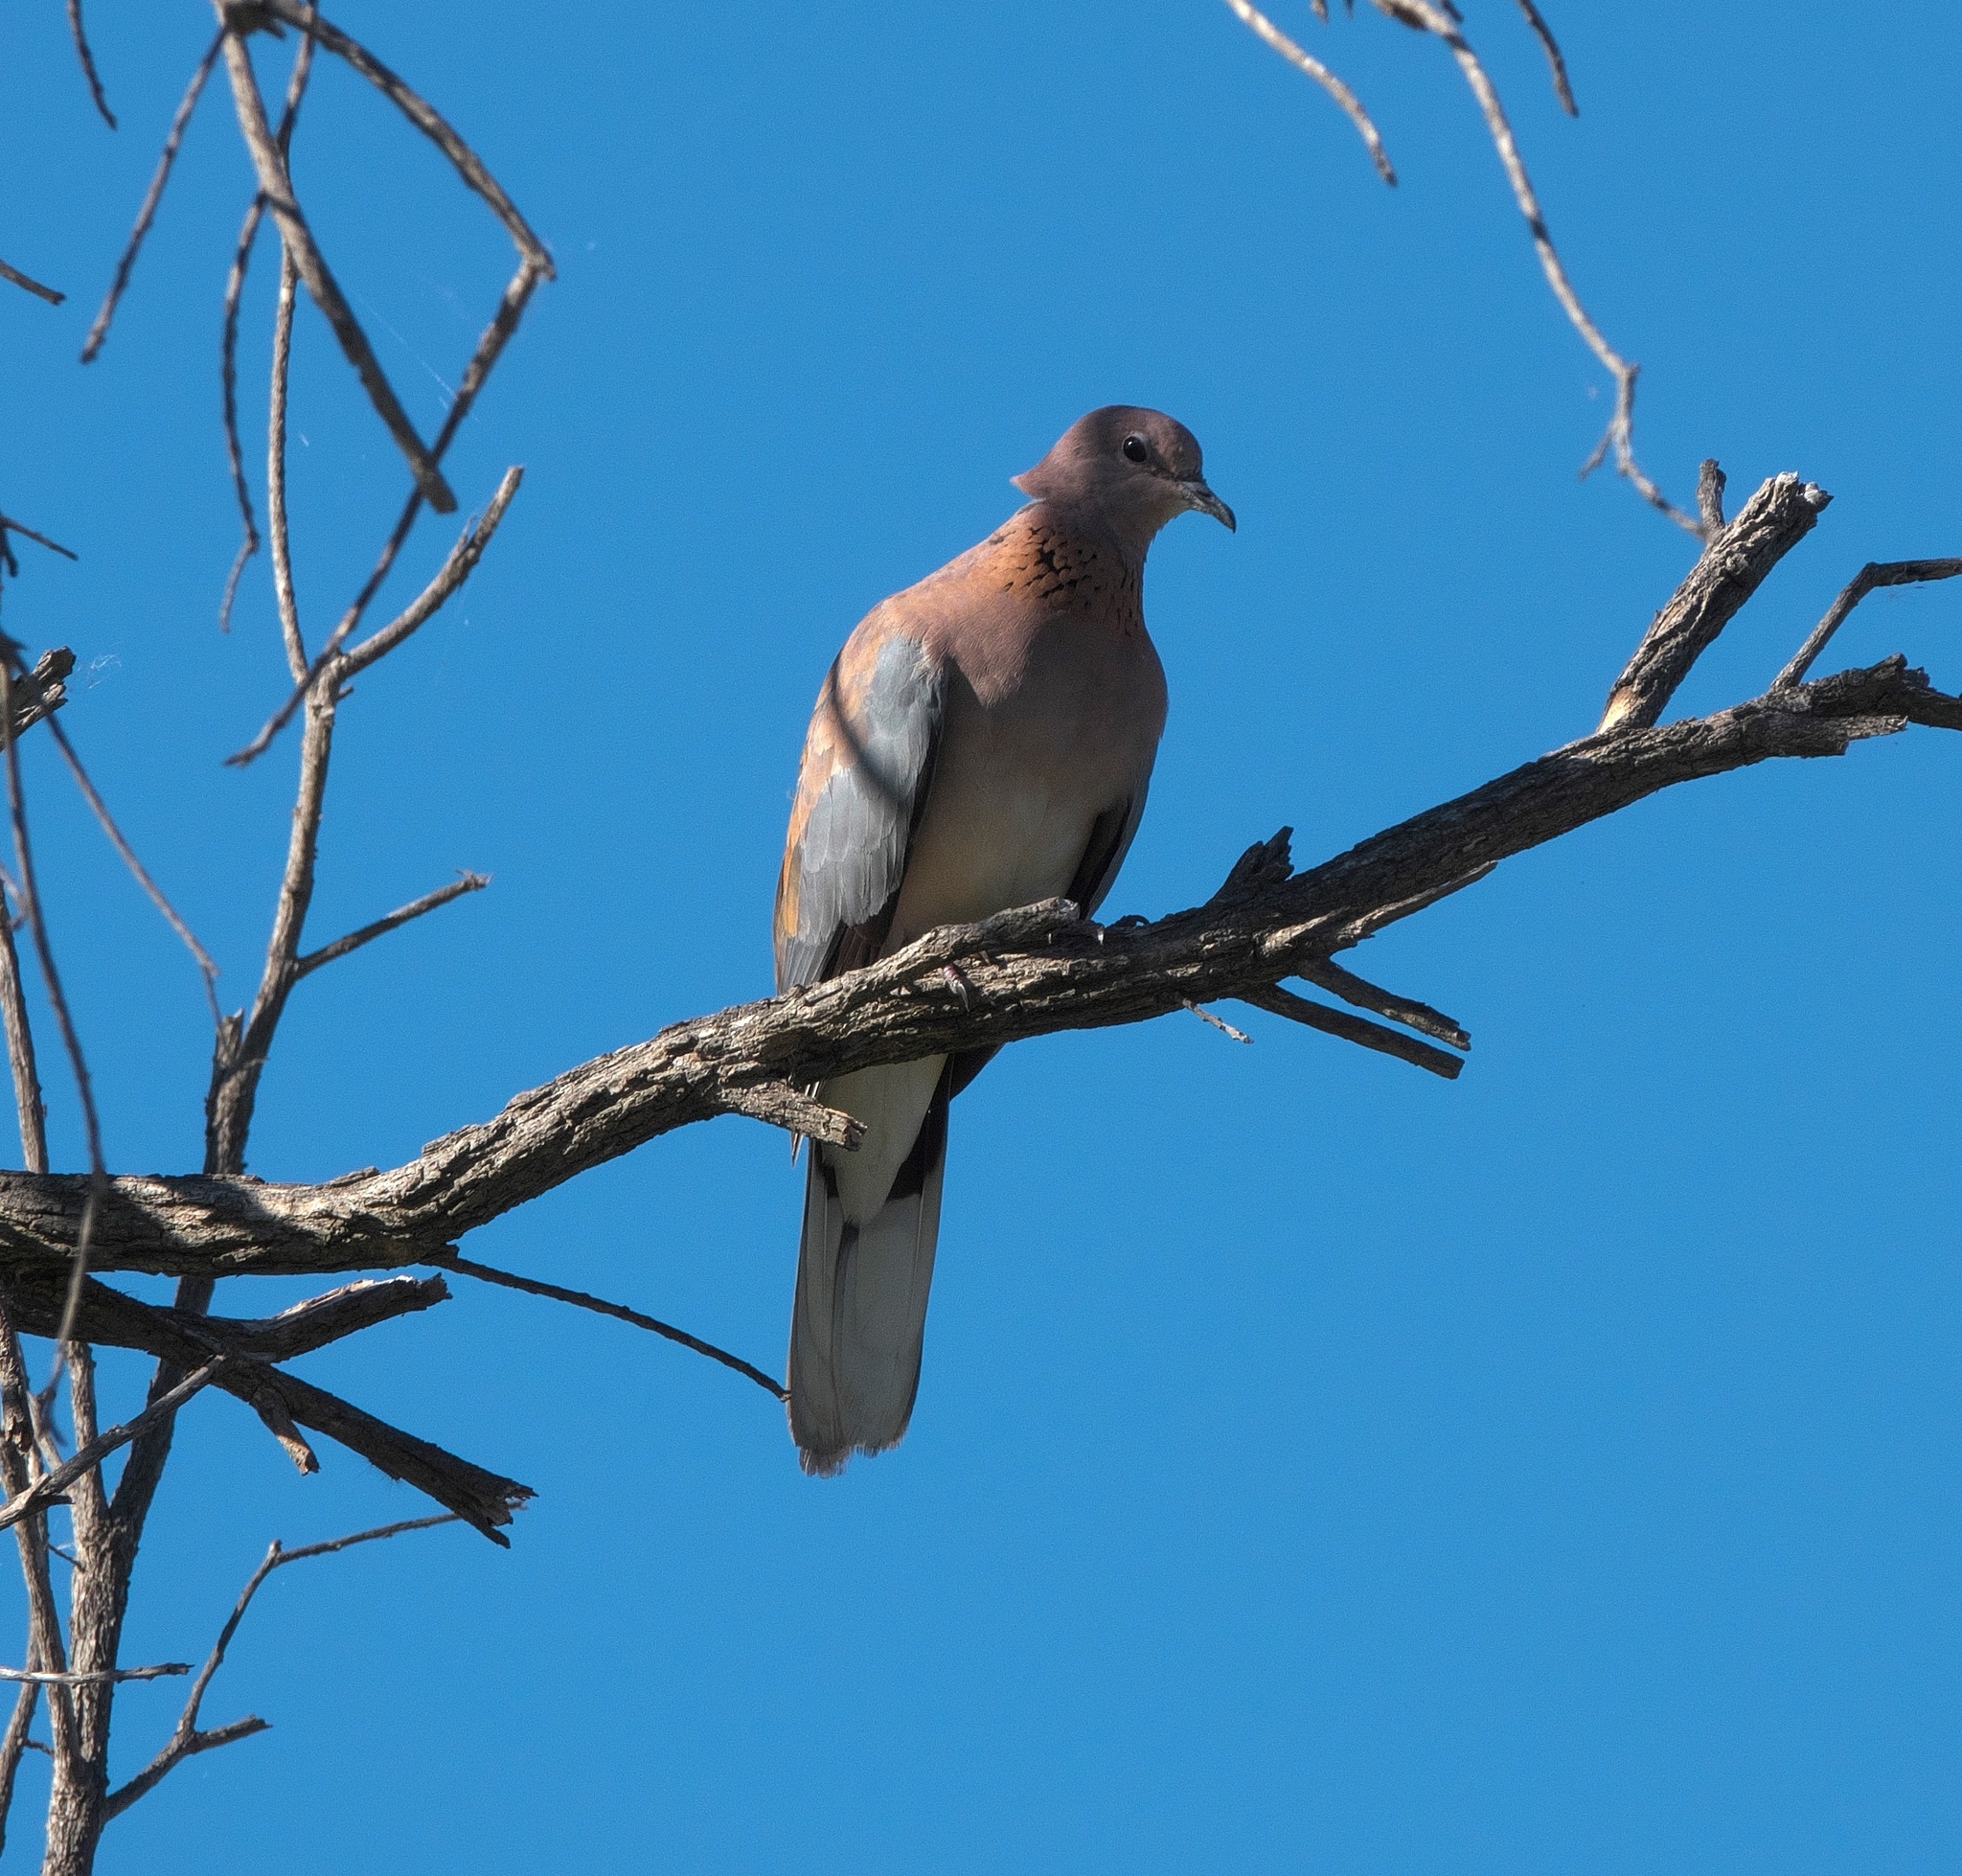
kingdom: Animalia
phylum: Chordata
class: Aves
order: Columbiformes
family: Columbidae
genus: Spilopelia
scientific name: Spilopelia senegalensis
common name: Laughing dove
